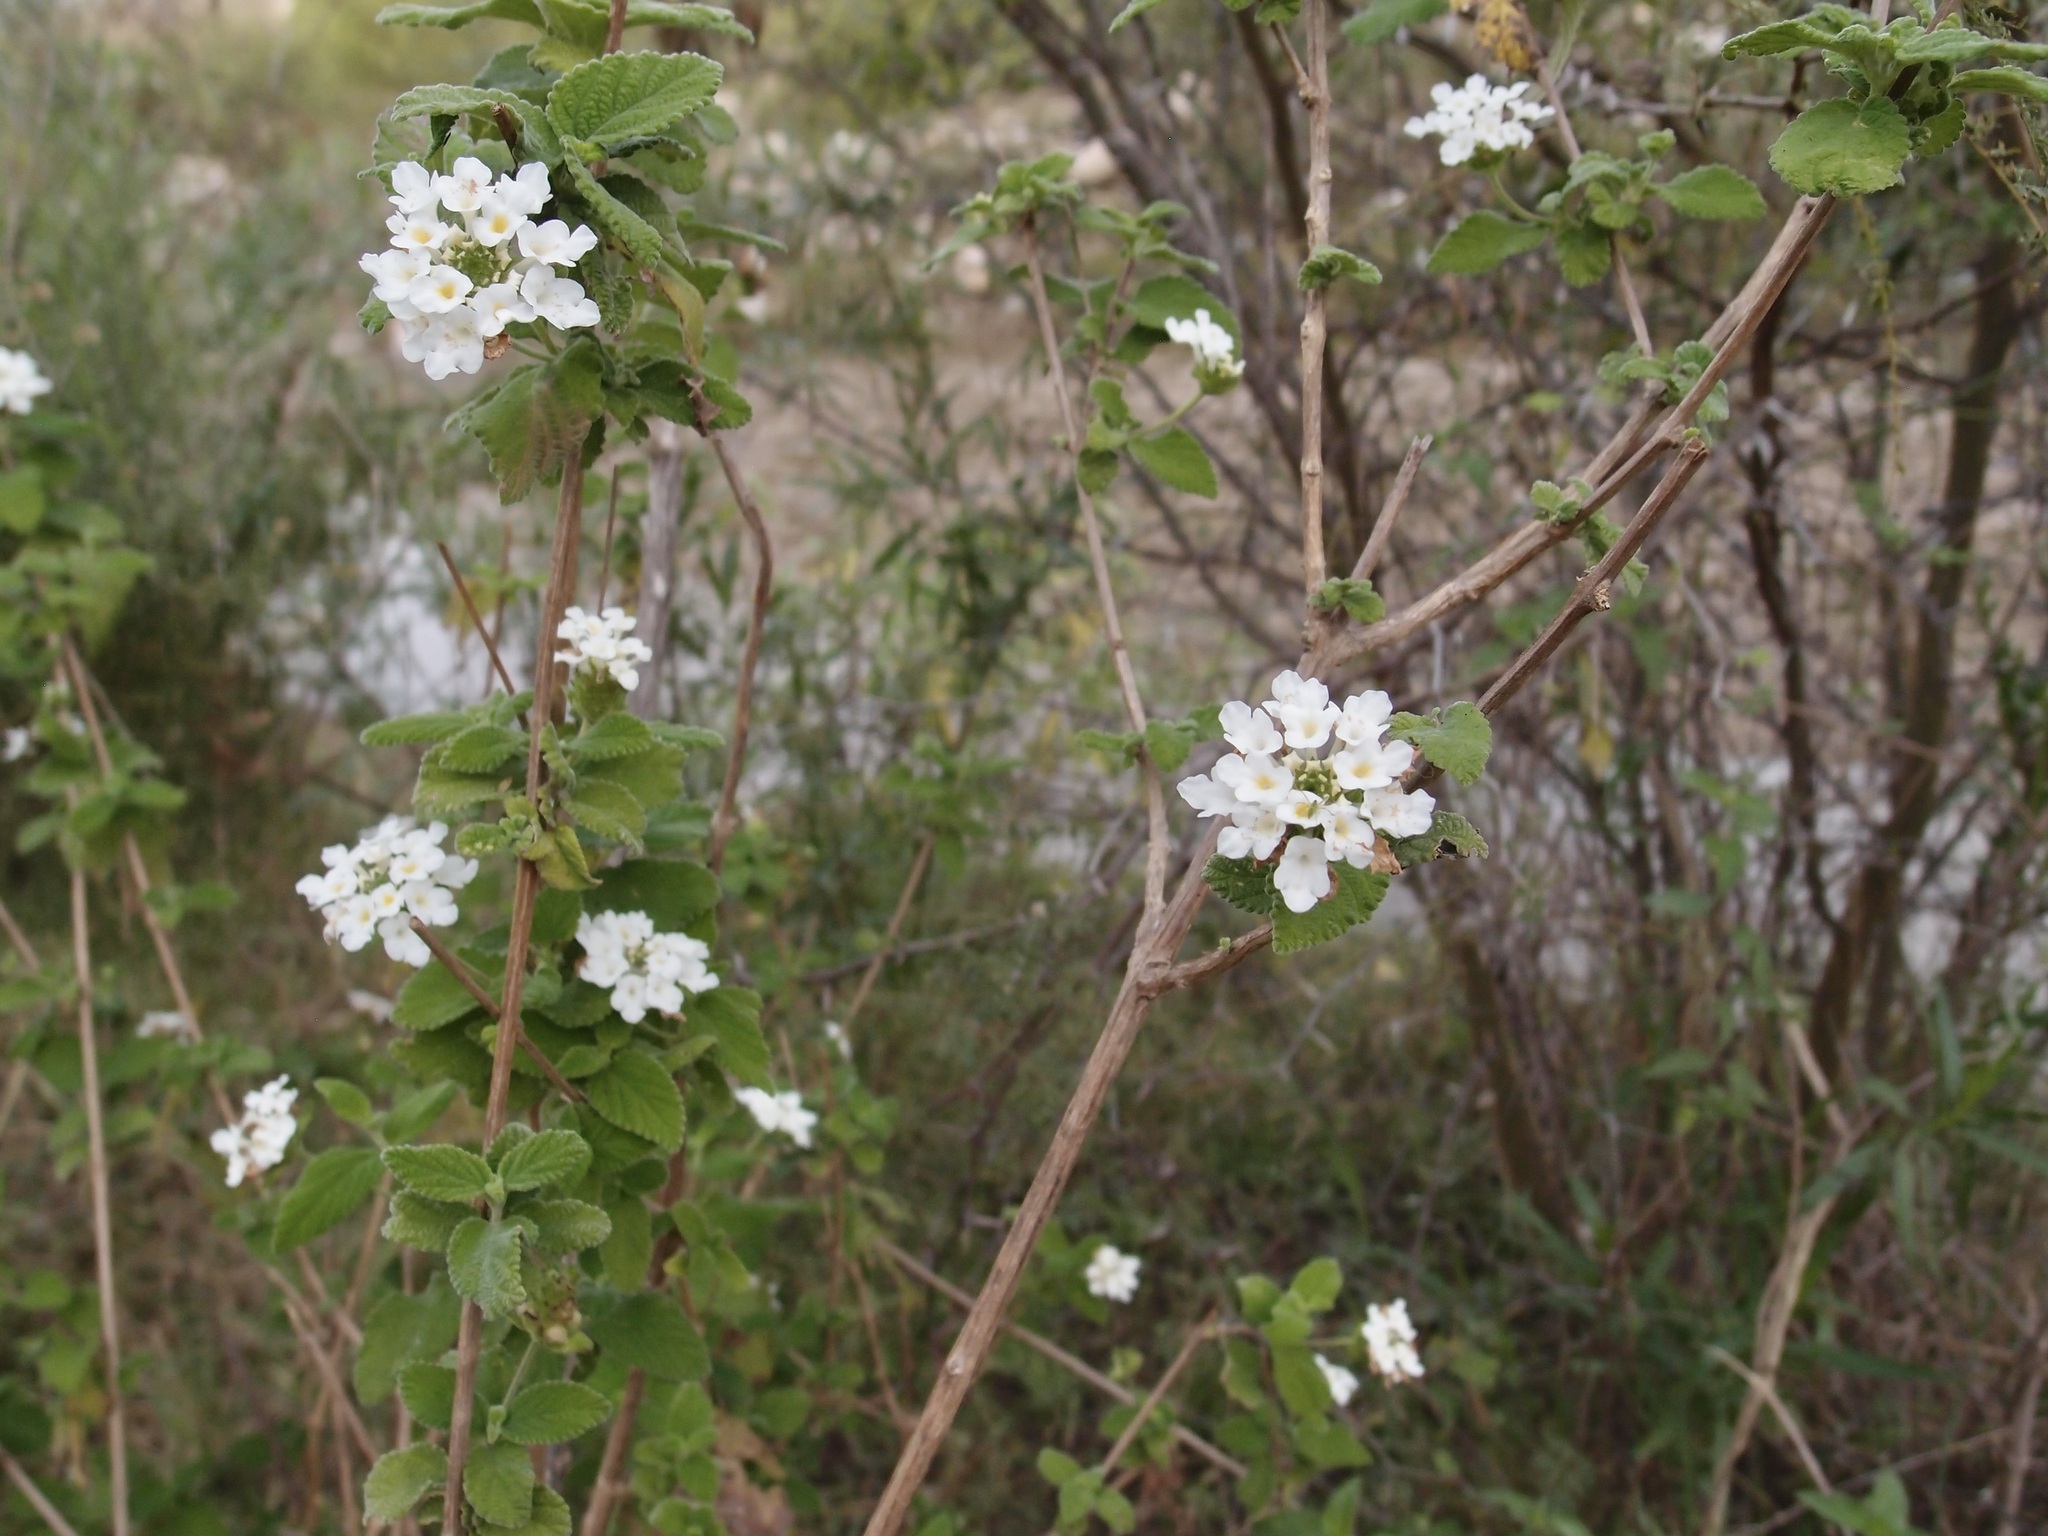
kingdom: Plantae
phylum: Tracheophyta
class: Magnoliopsida
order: Lamiales
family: Verbenaceae
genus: Lantana
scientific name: Lantana velutina
